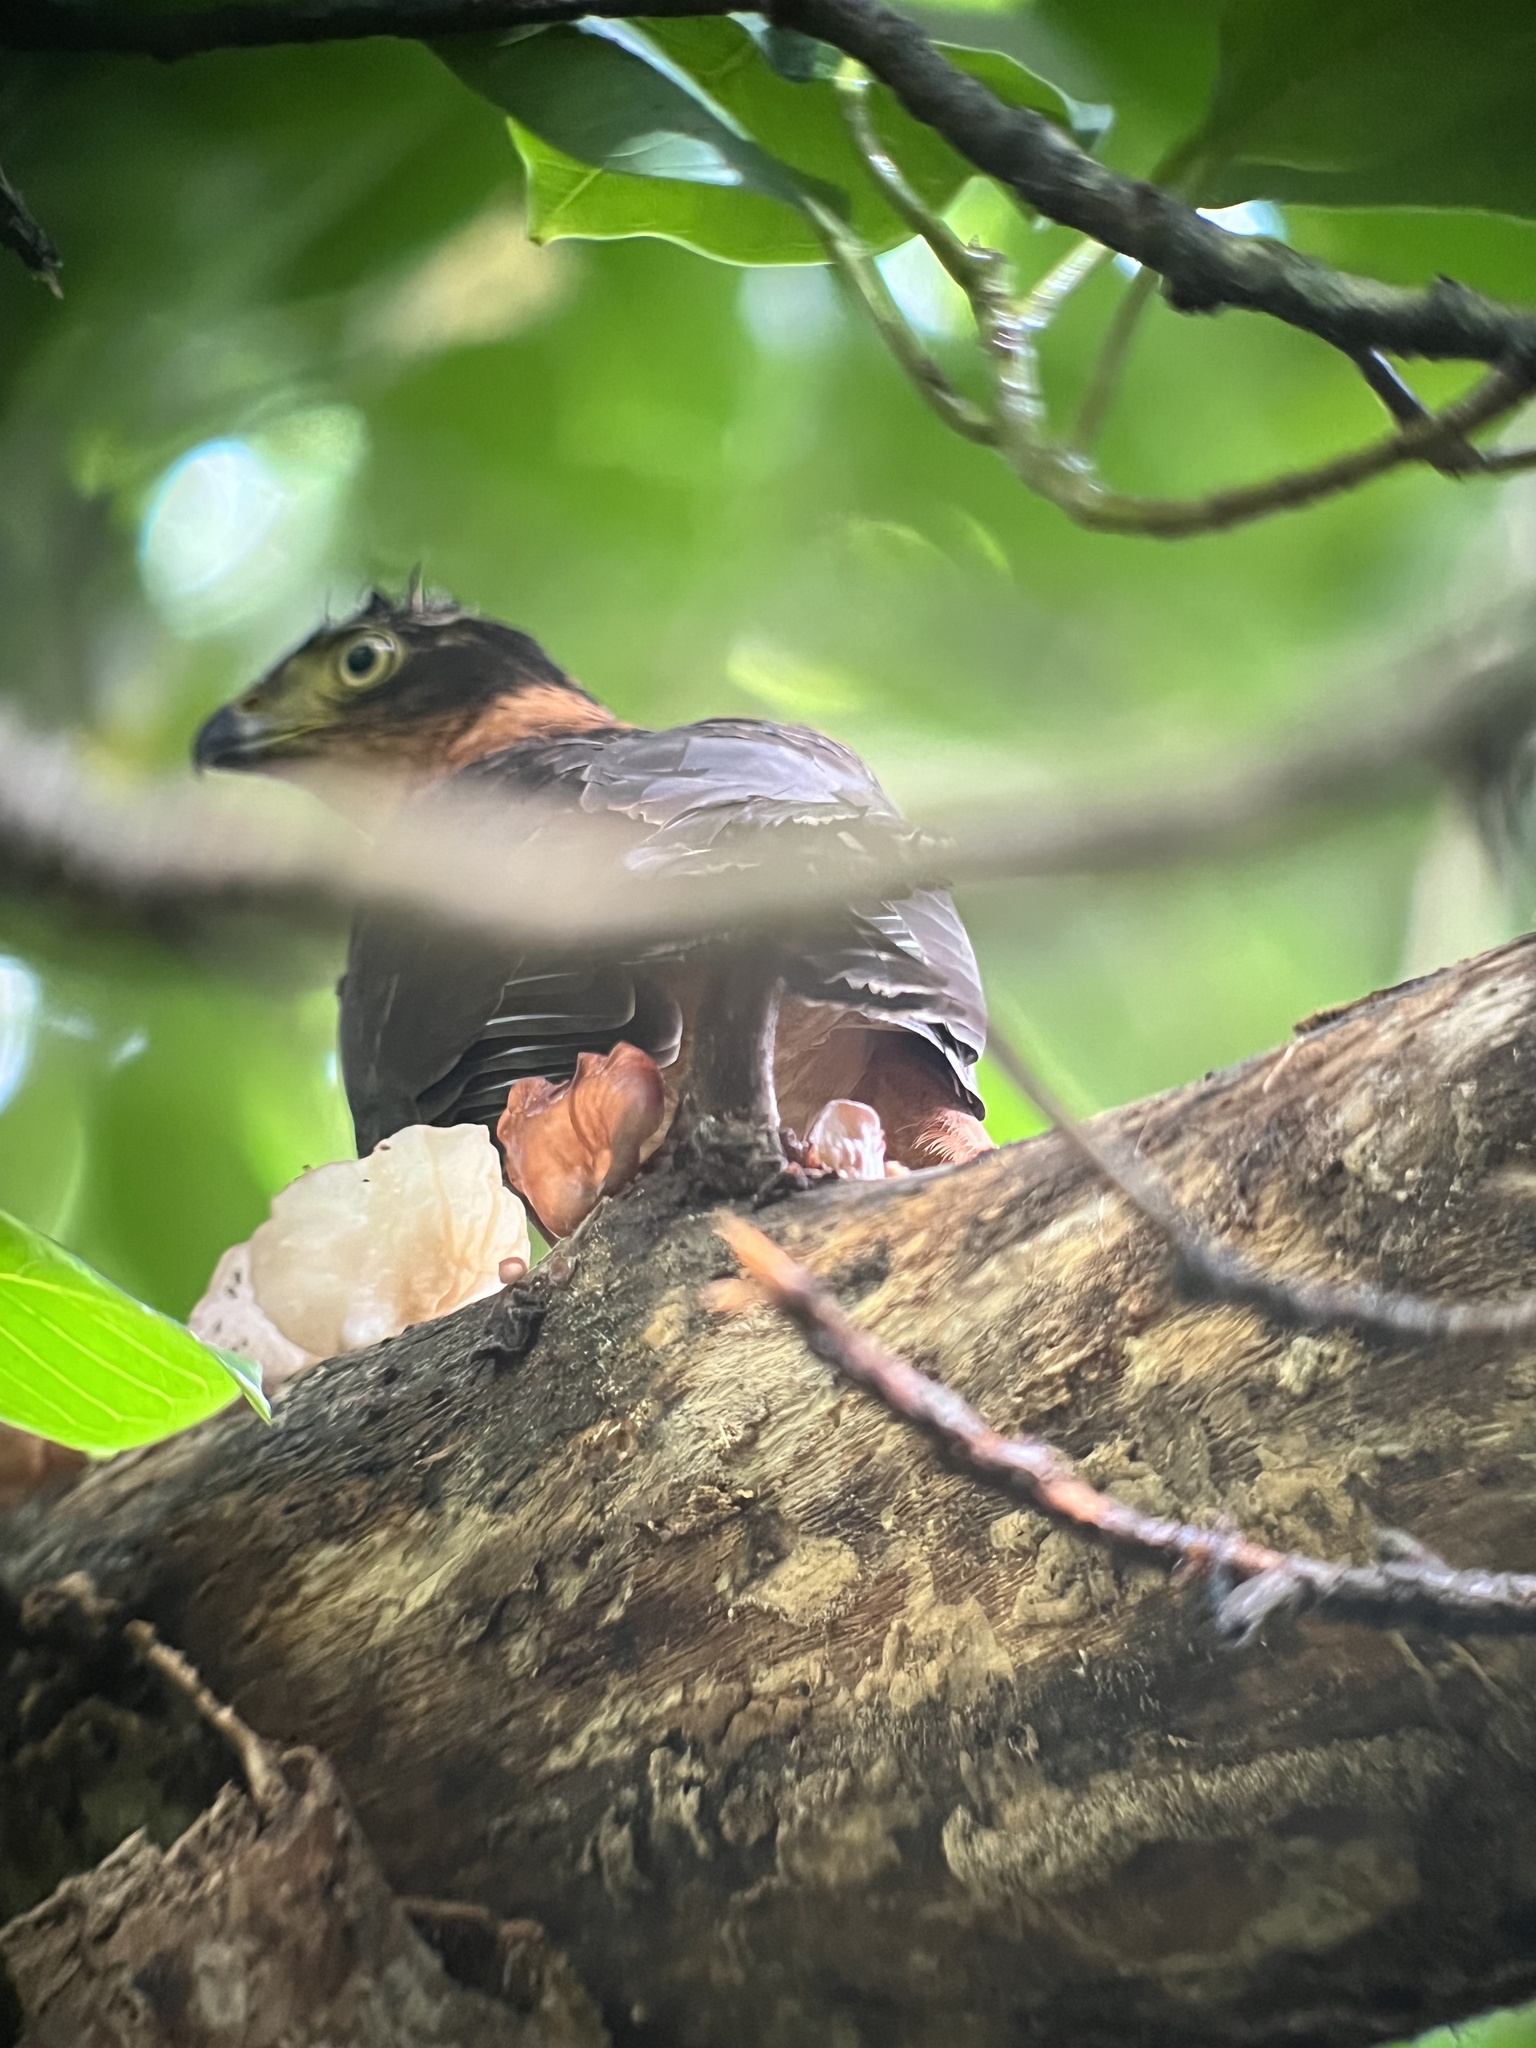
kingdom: Animalia
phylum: Chordata
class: Aves
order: Accipitriformes
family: Accipitridae
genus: Accipiter
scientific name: Accipiter bicolor
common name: Bicolored hawk
